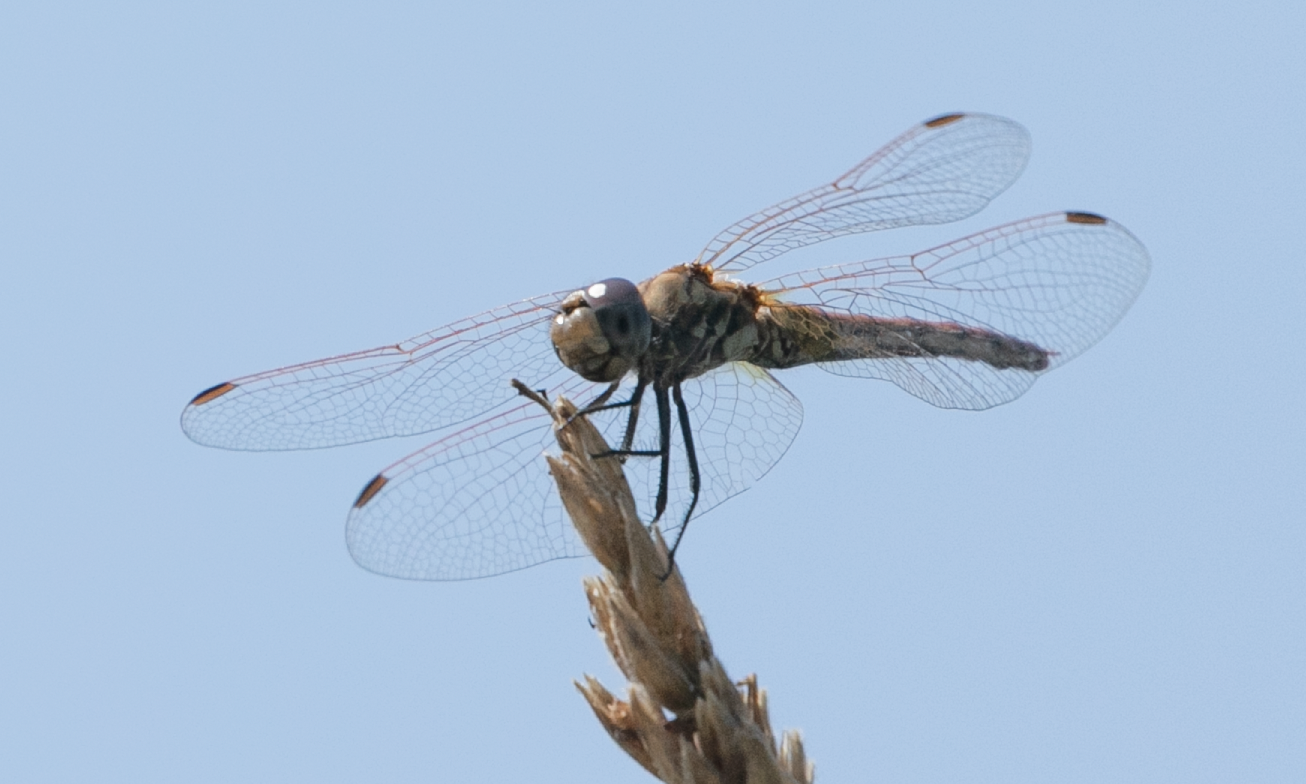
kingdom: Animalia
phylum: Arthropoda
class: Insecta
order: Odonata
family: Libellulidae
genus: Trithemis
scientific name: Trithemis annulata
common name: Violet dropwing
